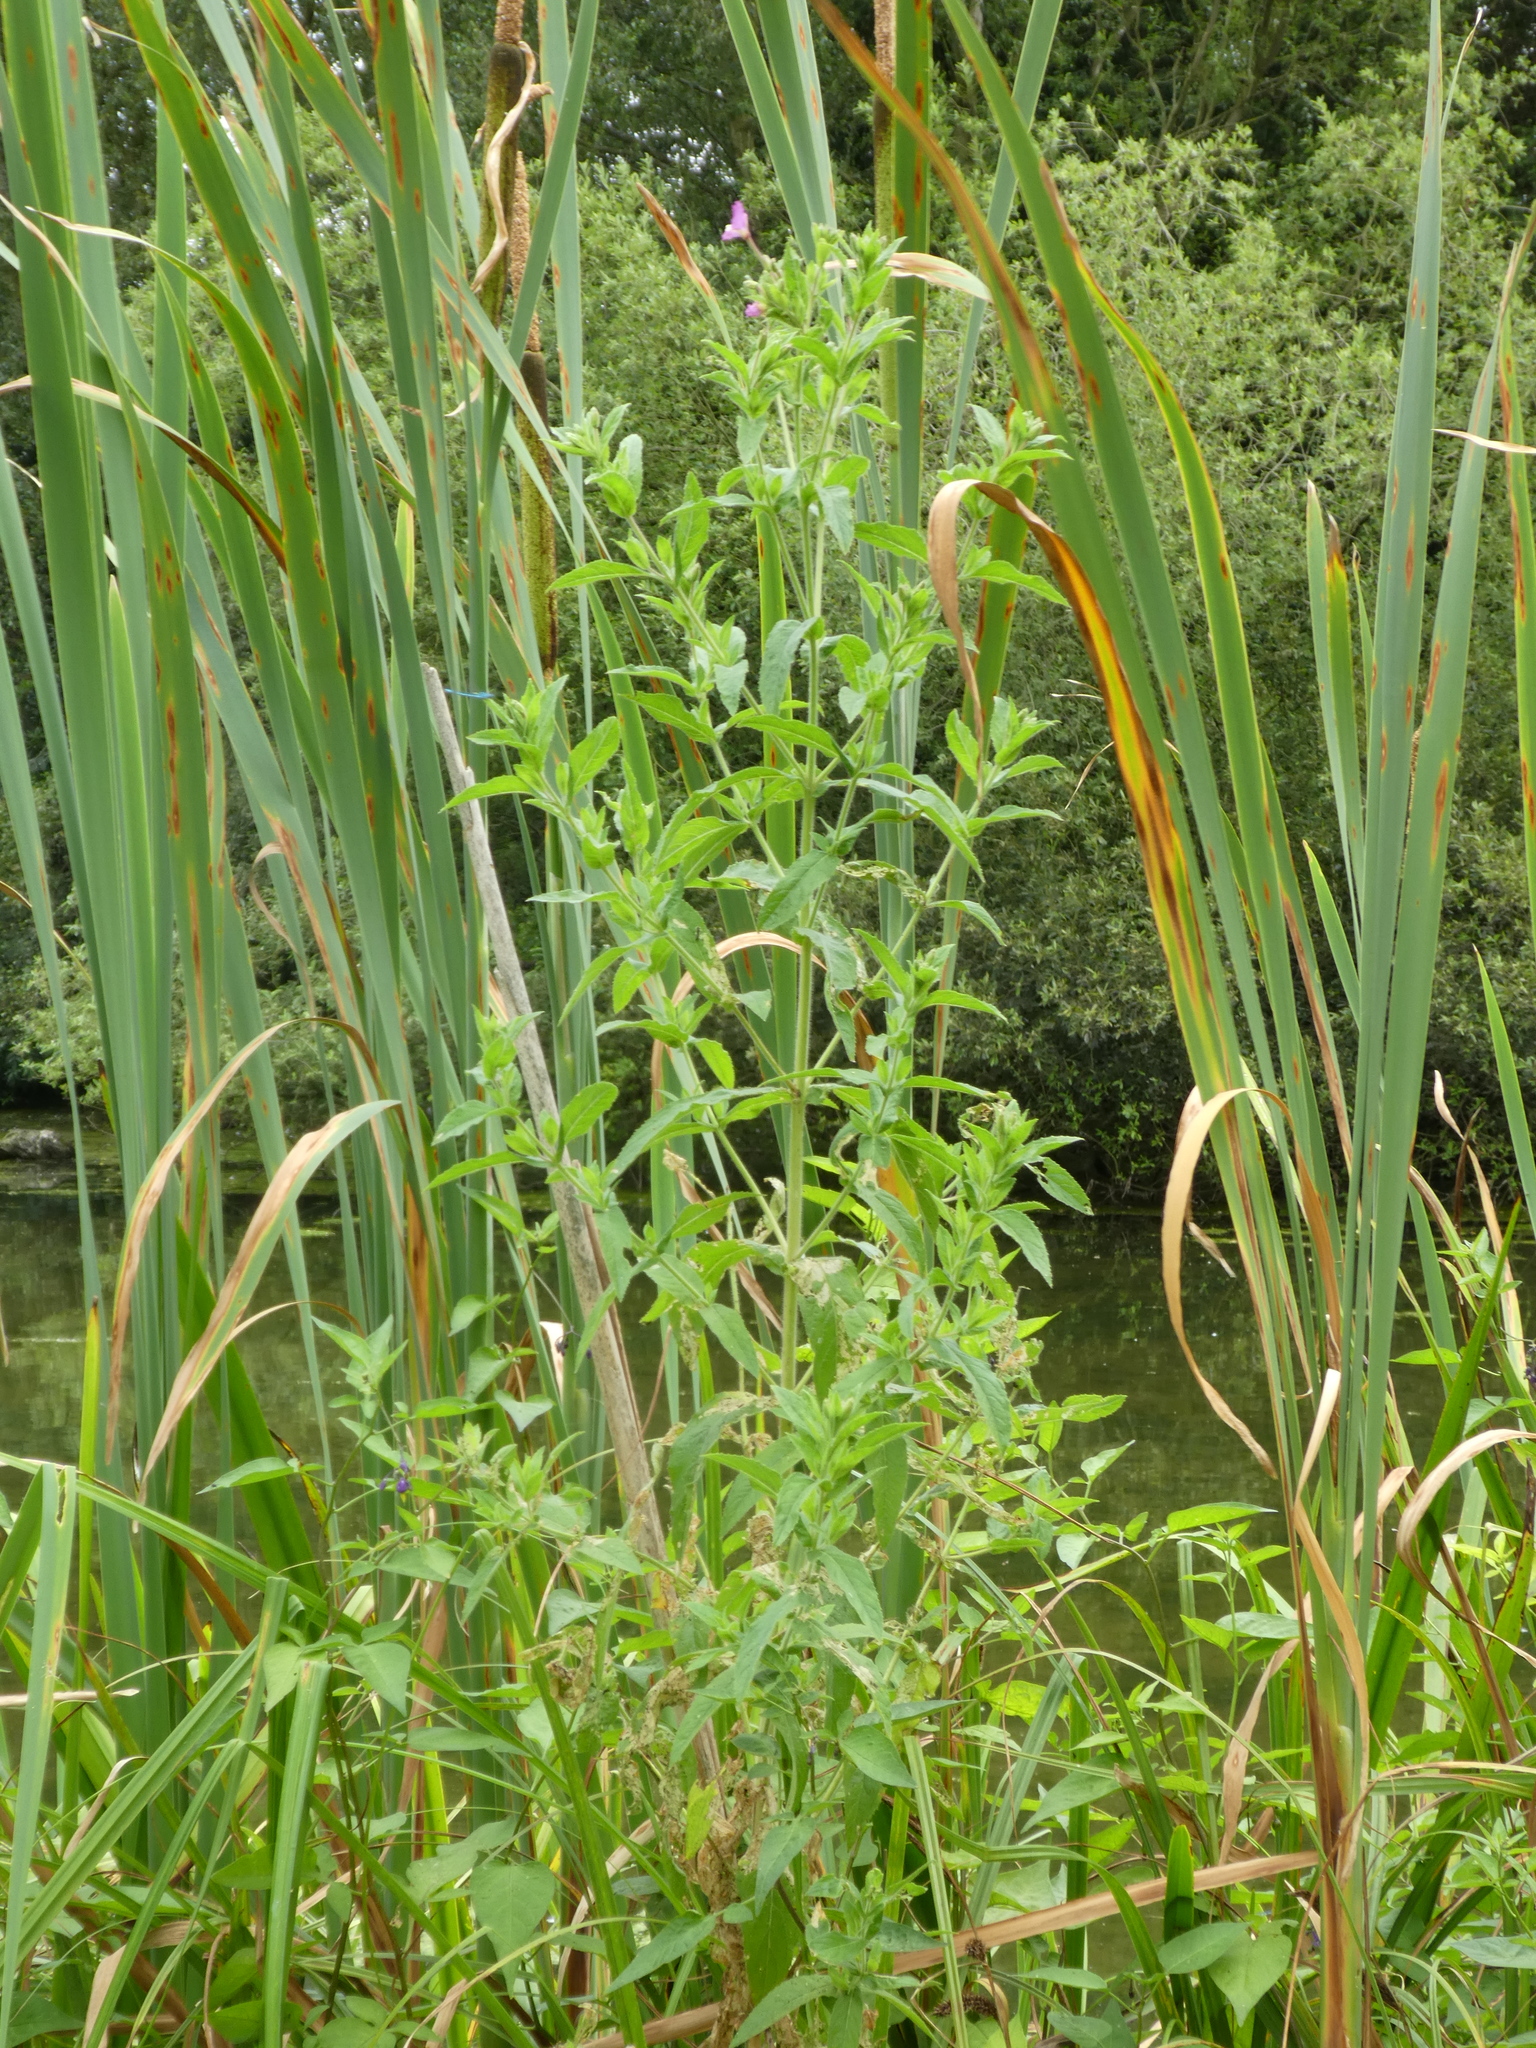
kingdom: Plantae
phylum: Tracheophyta
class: Magnoliopsida
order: Myrtales
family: Onagraceae
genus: Epilobium
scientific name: Epilobium hirsutum
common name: Great willowherb
